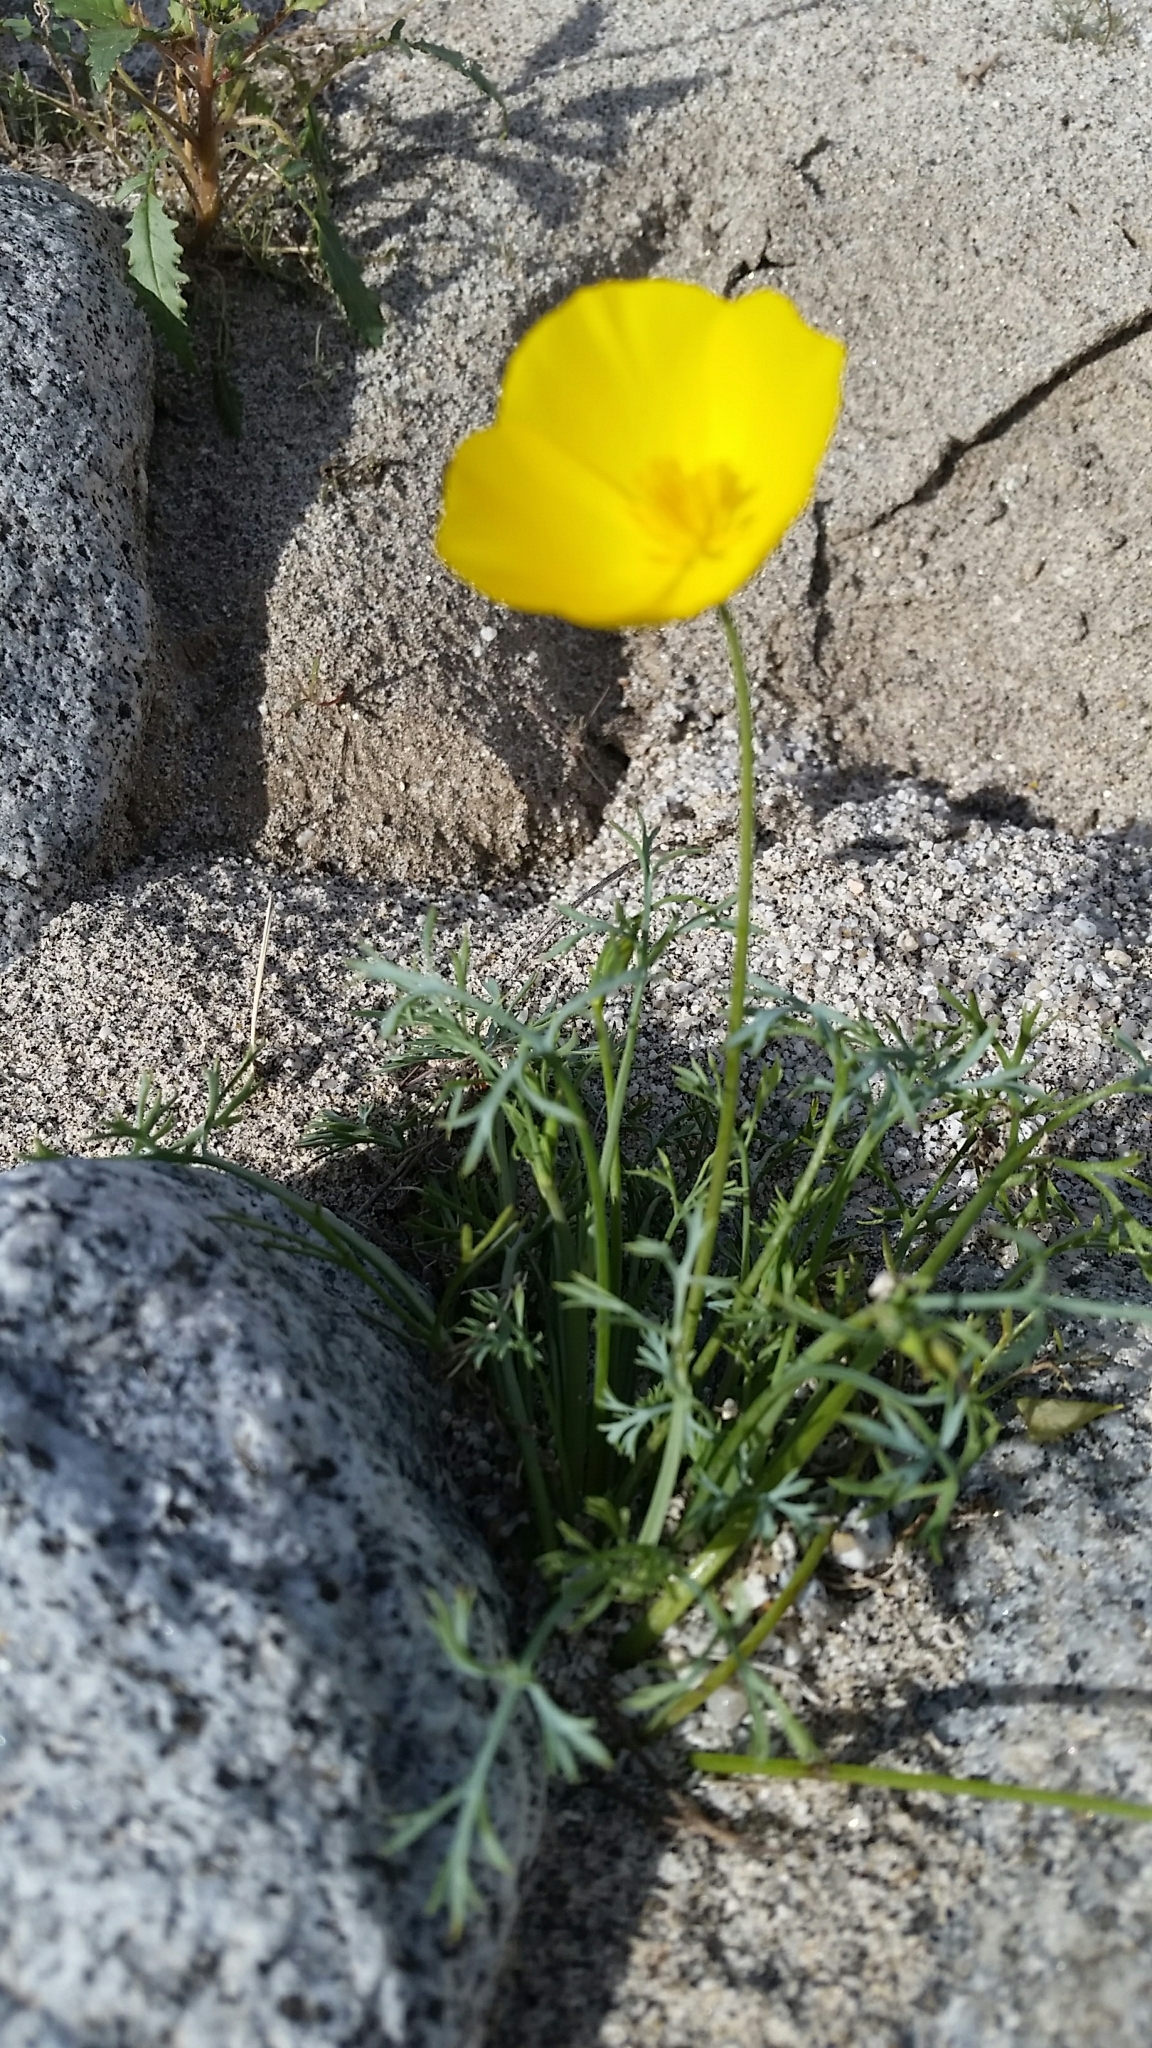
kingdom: Plantae
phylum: Tracheophyta
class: Magnoliopsida
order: Ranunculales
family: Papaveraceae
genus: Eschscholzia
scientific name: Eschscholzia parishii
